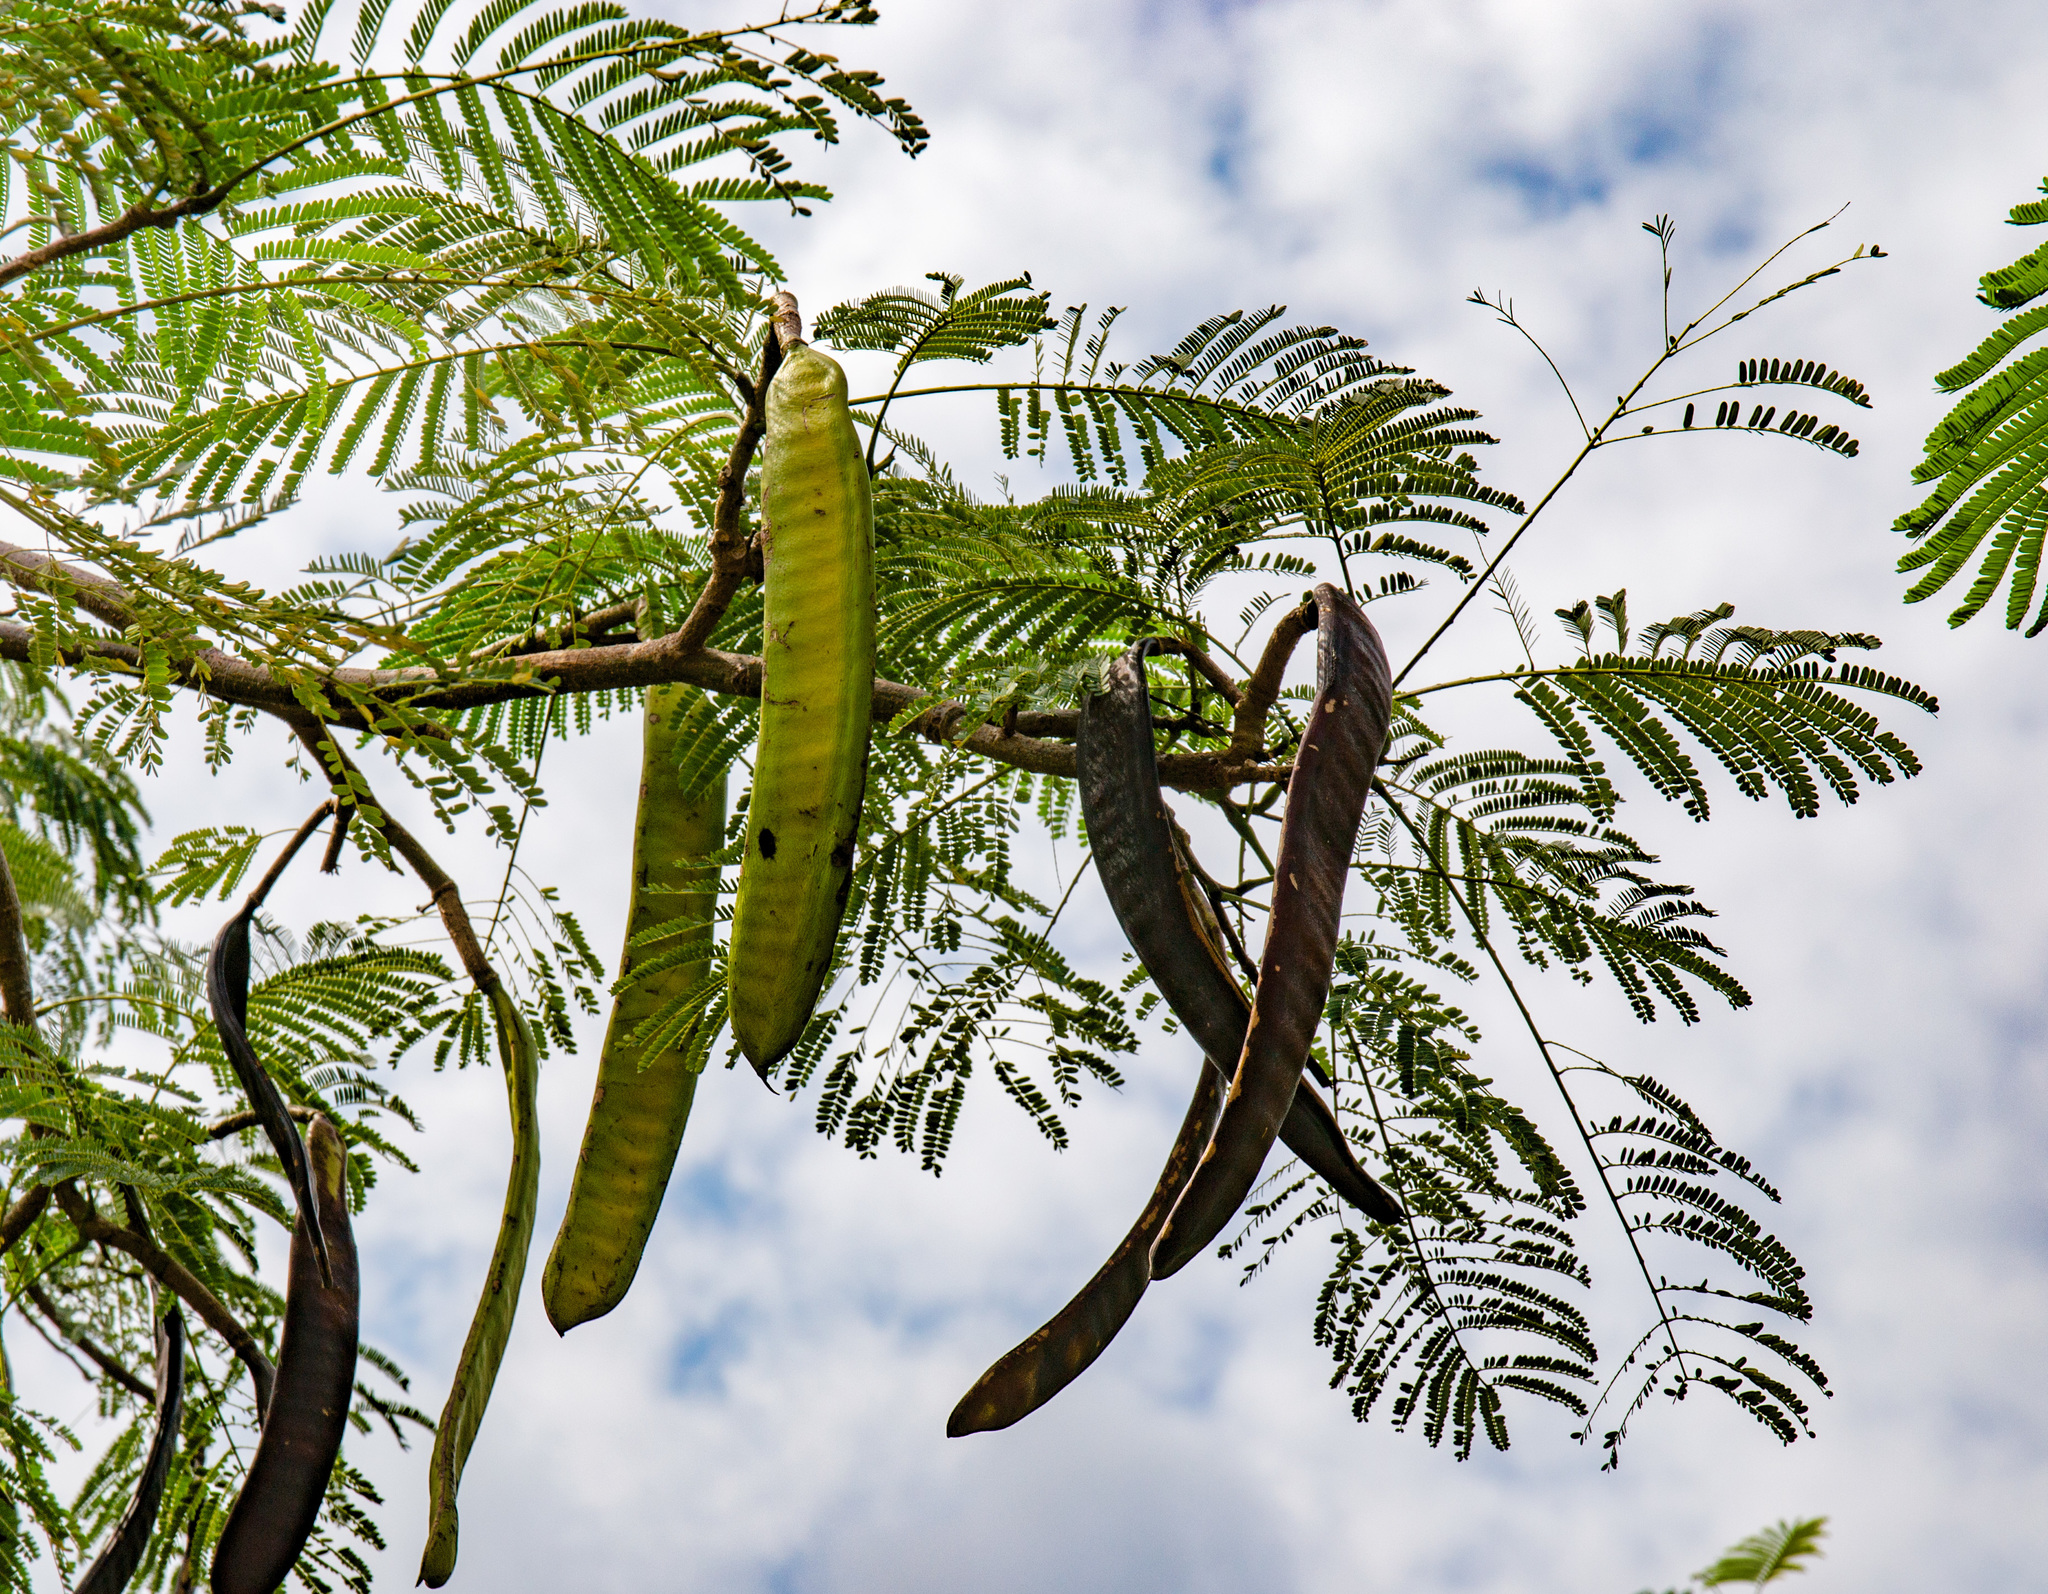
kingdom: Plantae
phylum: Tracheophyta
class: Magnoliopsida
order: Fabales
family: Fabaceae
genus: Delonix
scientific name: Delonix regia
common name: Royal poinciana
